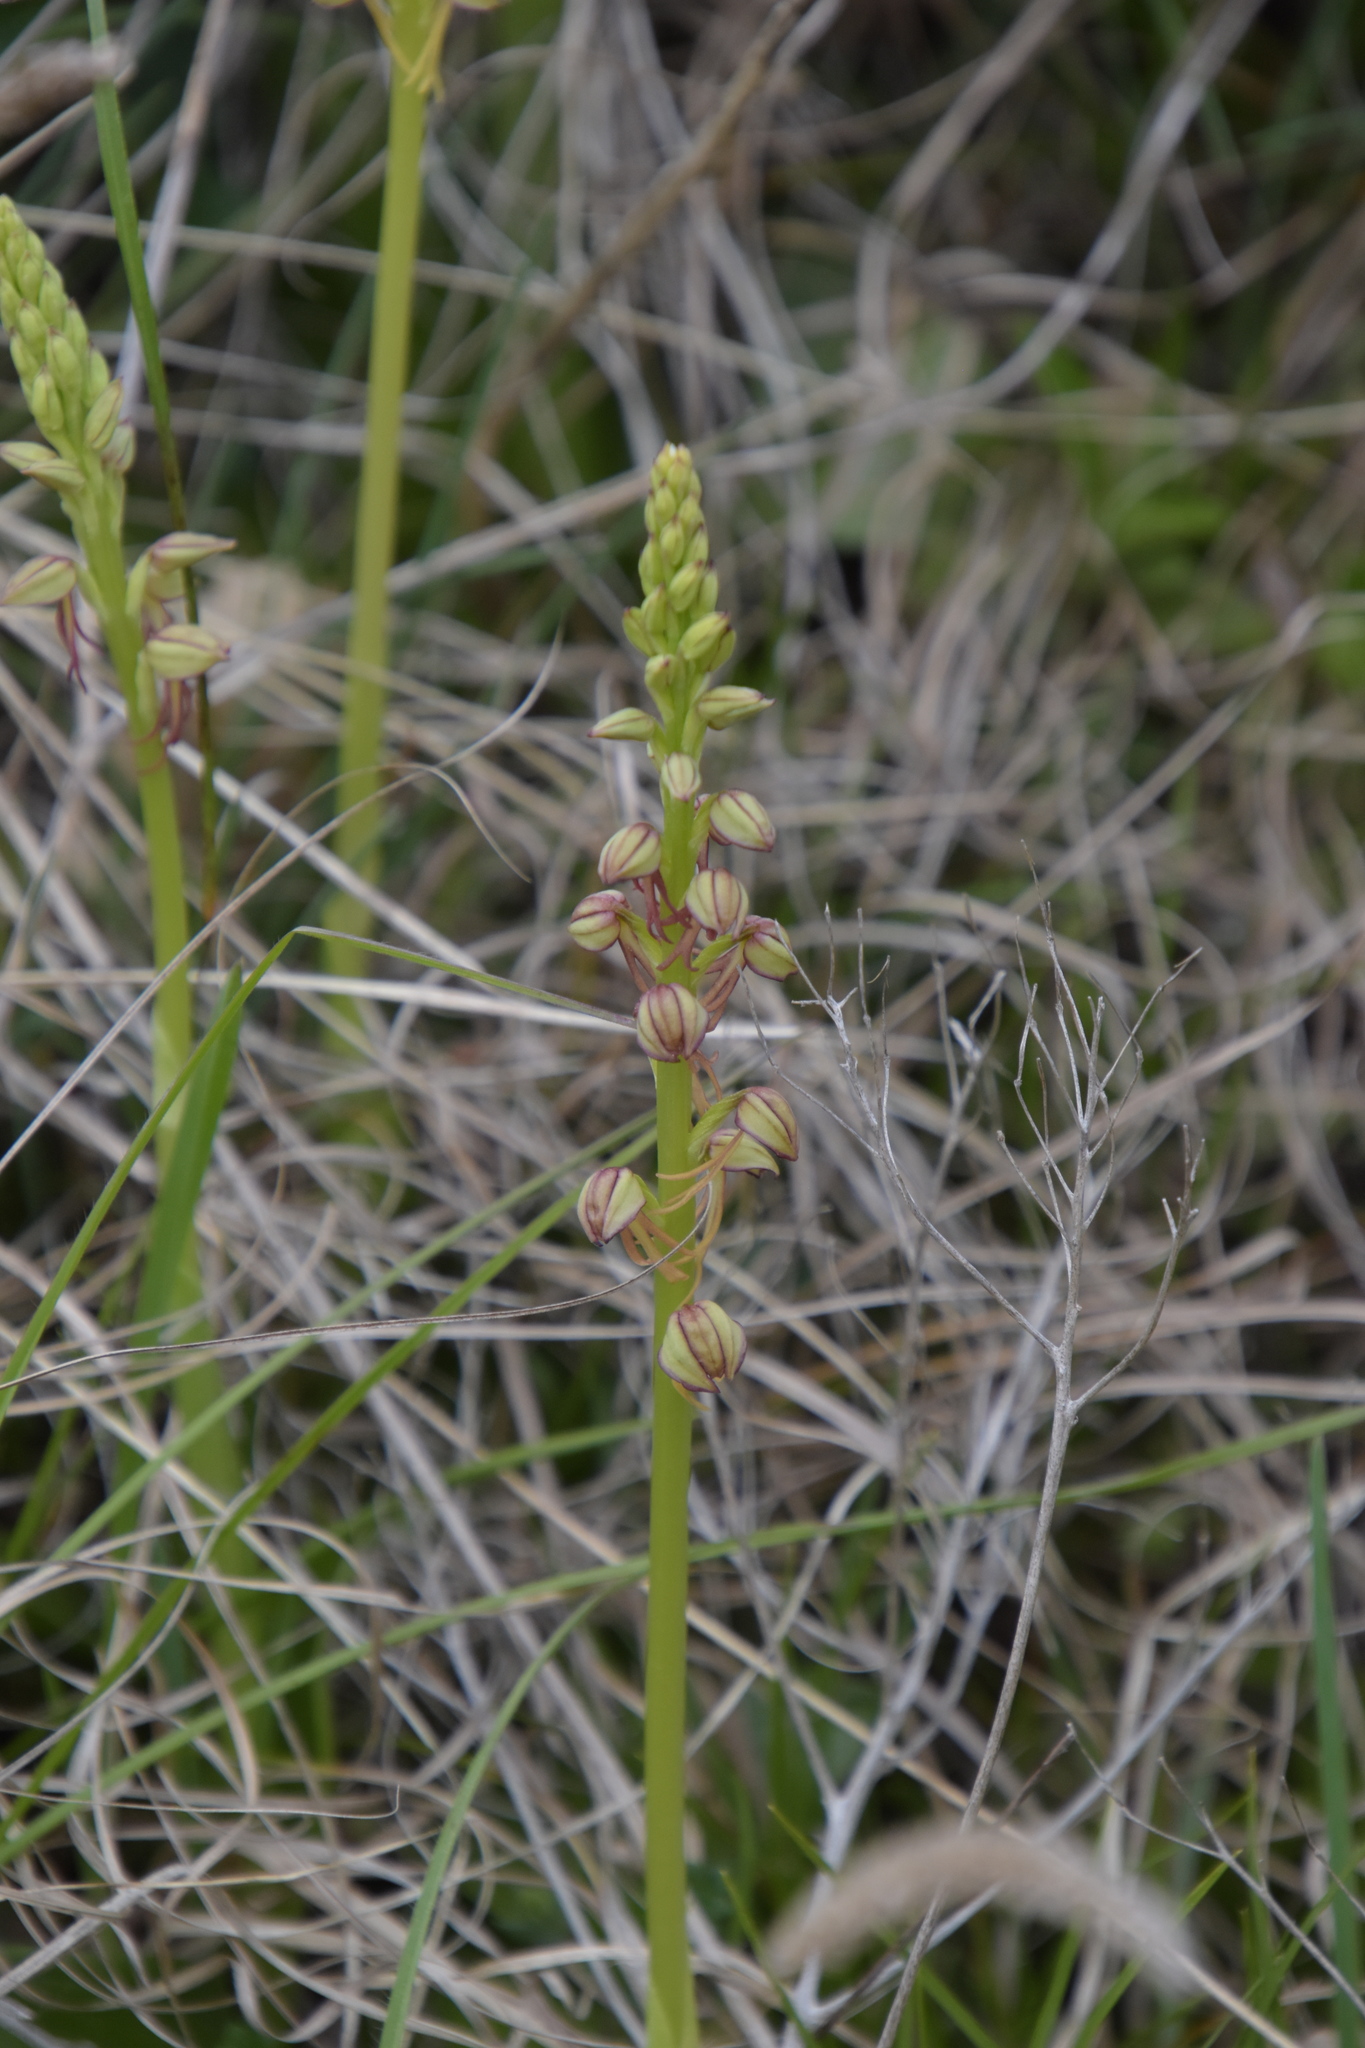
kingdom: Plantae
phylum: Tracheophyta
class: Liliopsida
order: Asparagales
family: Orchidaceae
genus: Orchis
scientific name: Orchis anthropophora
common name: Man orchid
